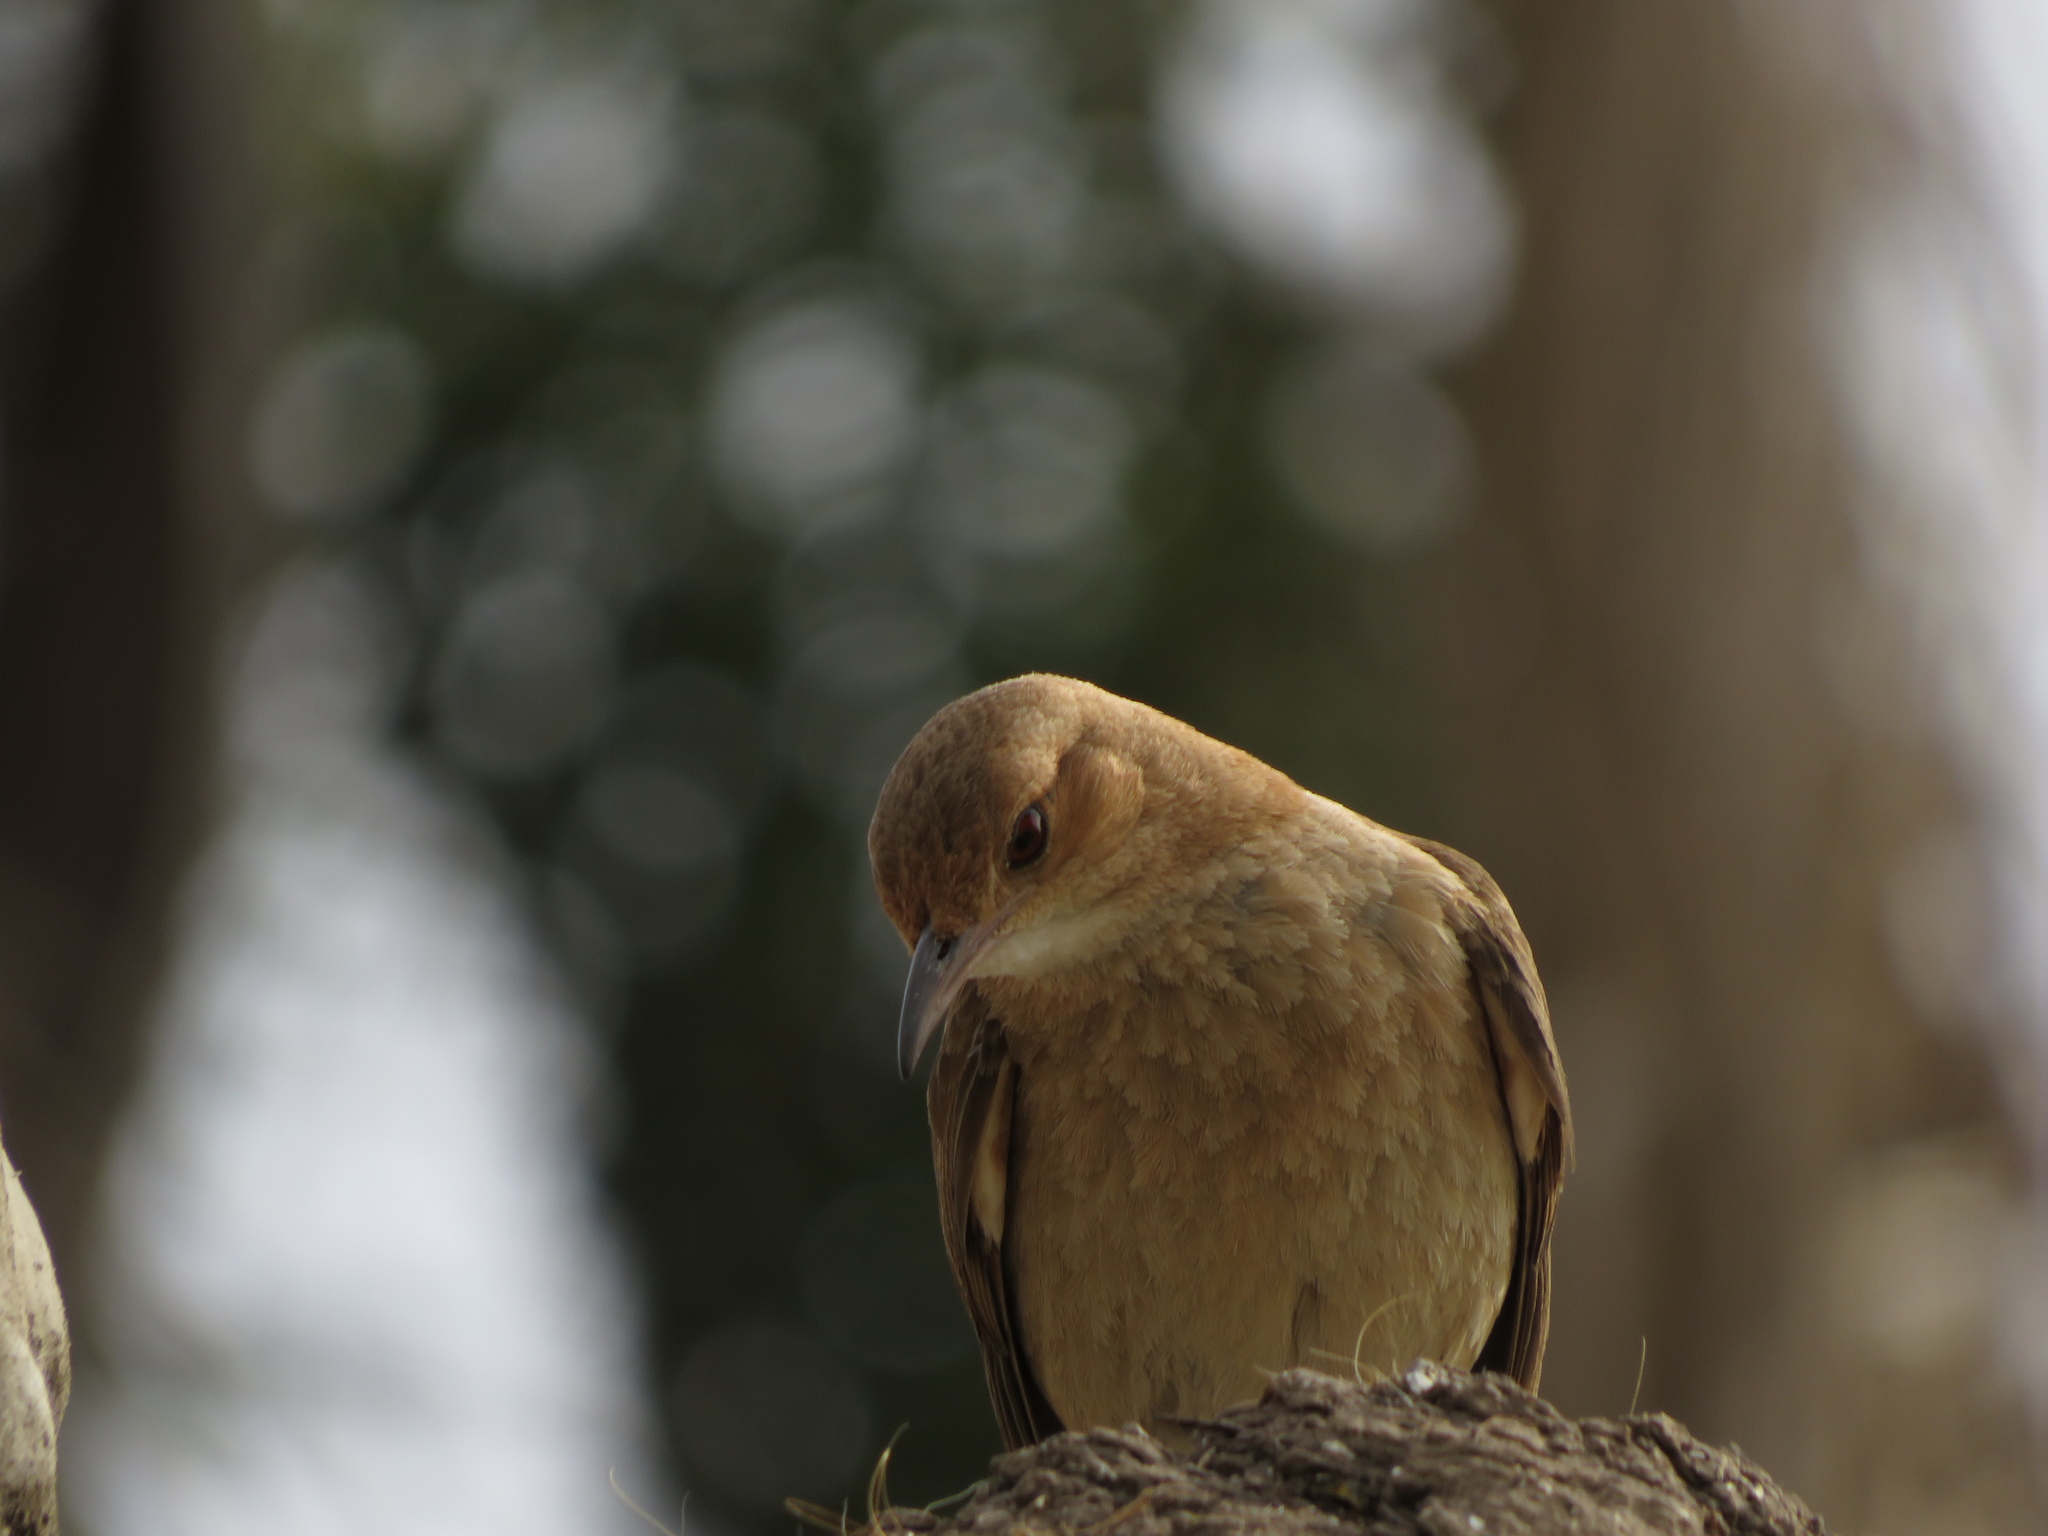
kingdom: Animalia
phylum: Chordata
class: Aves
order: Passeriformes
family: Furnariidae
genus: Furnarius
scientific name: Furnarius rufus
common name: Rufous hornero
